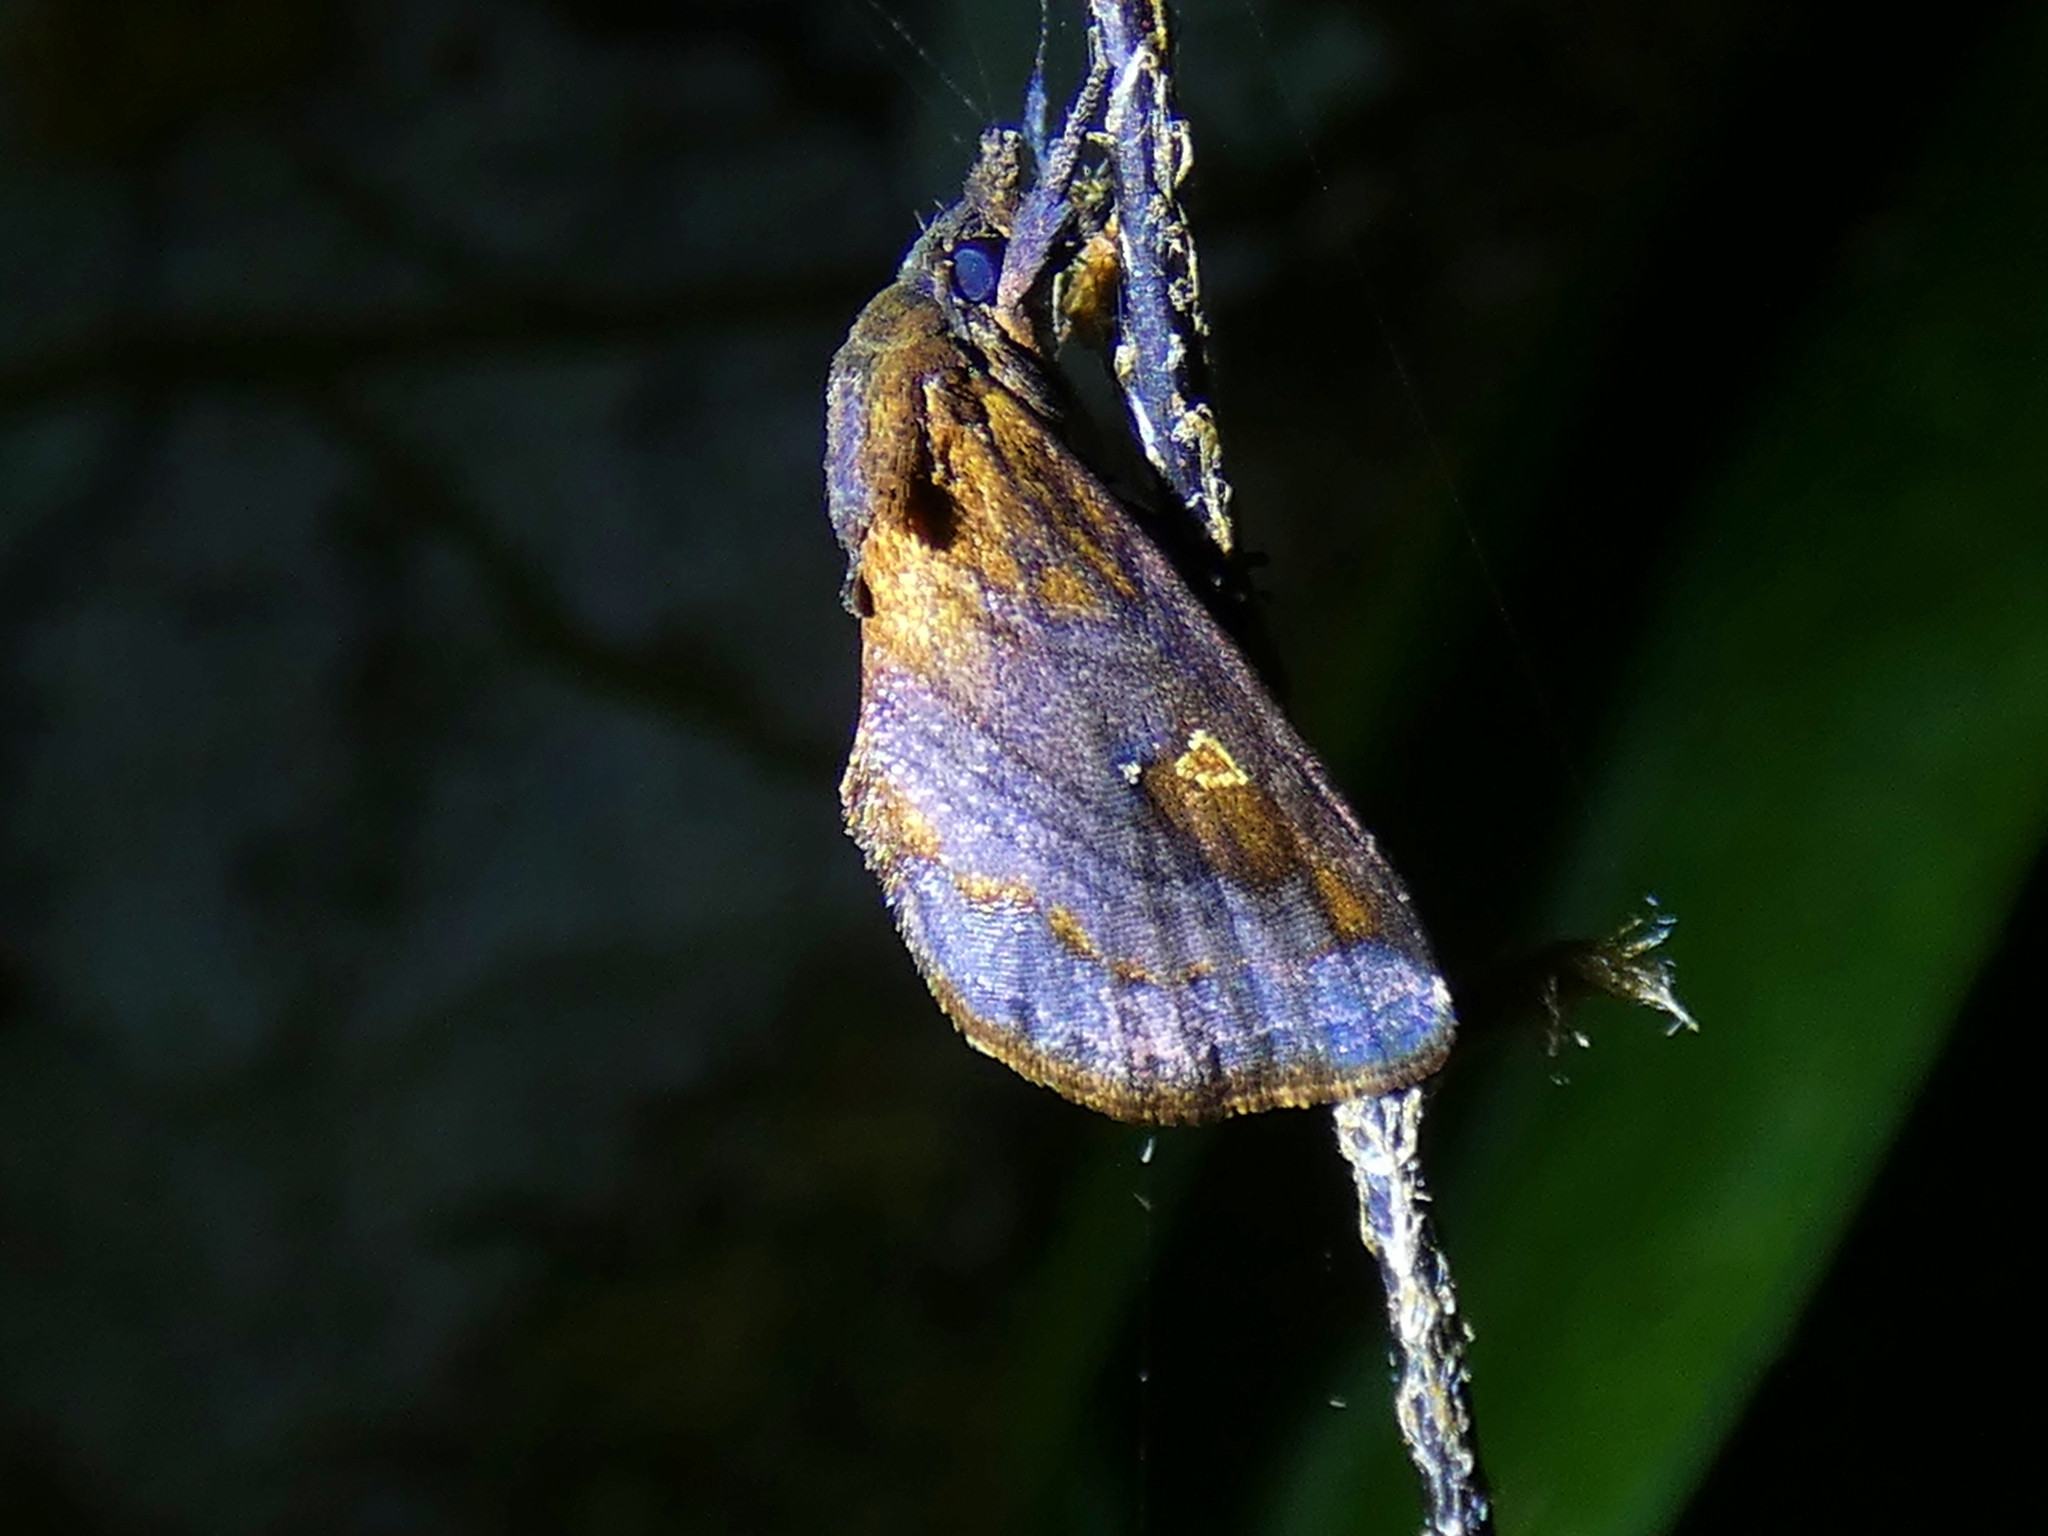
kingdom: Animalia
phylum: Arthropoda
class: Insecta
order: Lepidoptera
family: Noctuidae
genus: Eugatha
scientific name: Eugatha thermochroa
